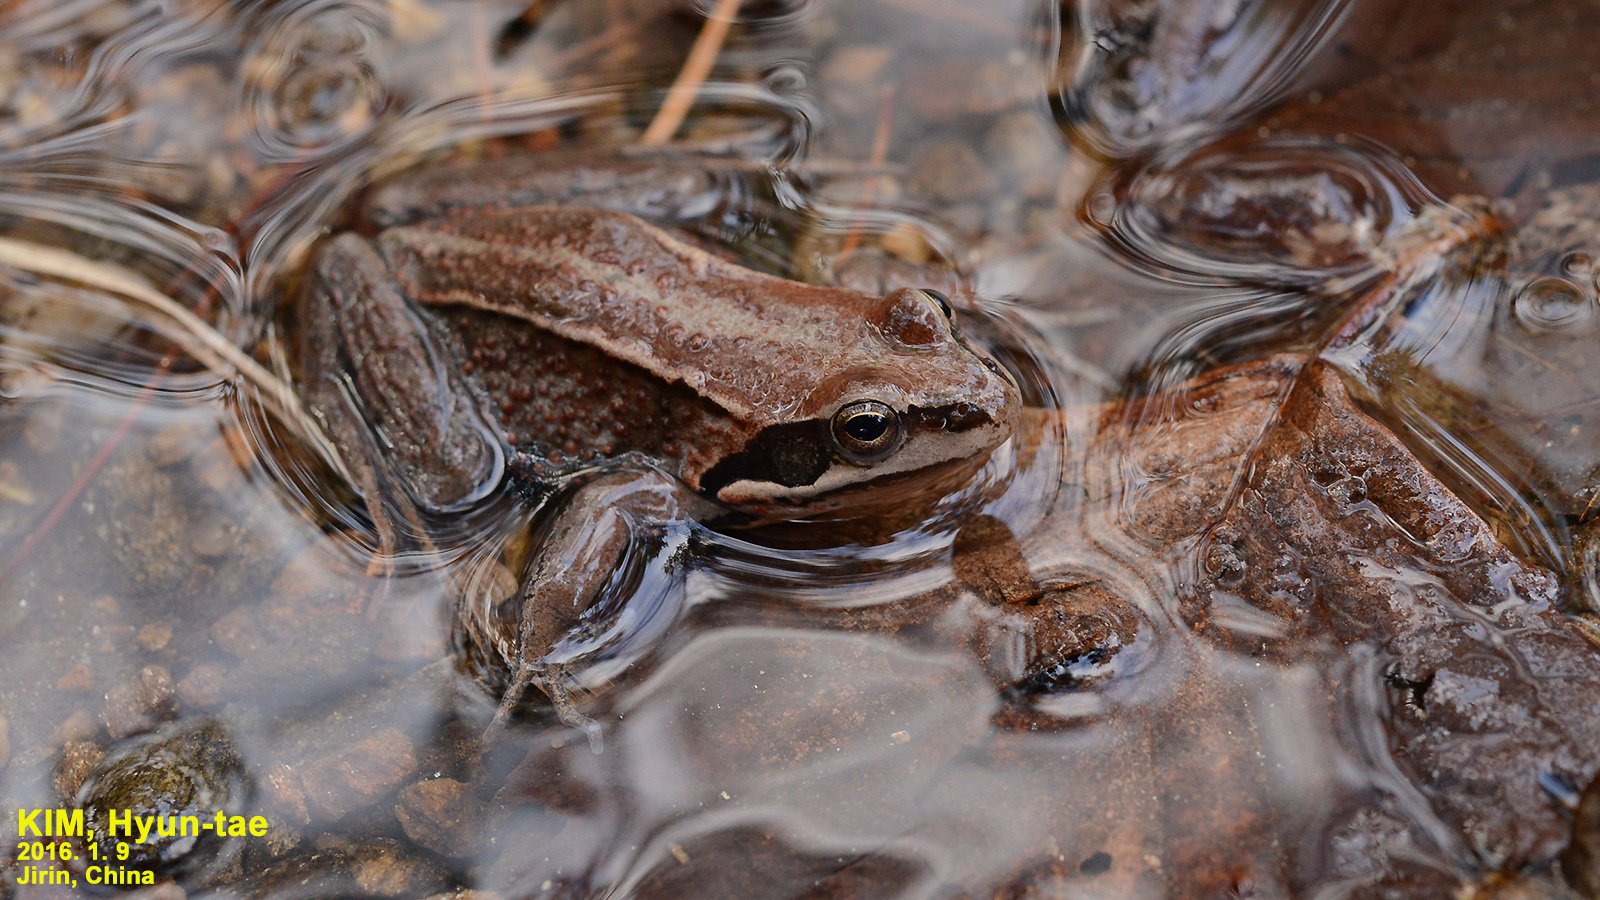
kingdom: Animalia
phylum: Chordata
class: Amphibia
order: Anura
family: Ranidae
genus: Rana
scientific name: Rana amurensis
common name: Amur brown frog
